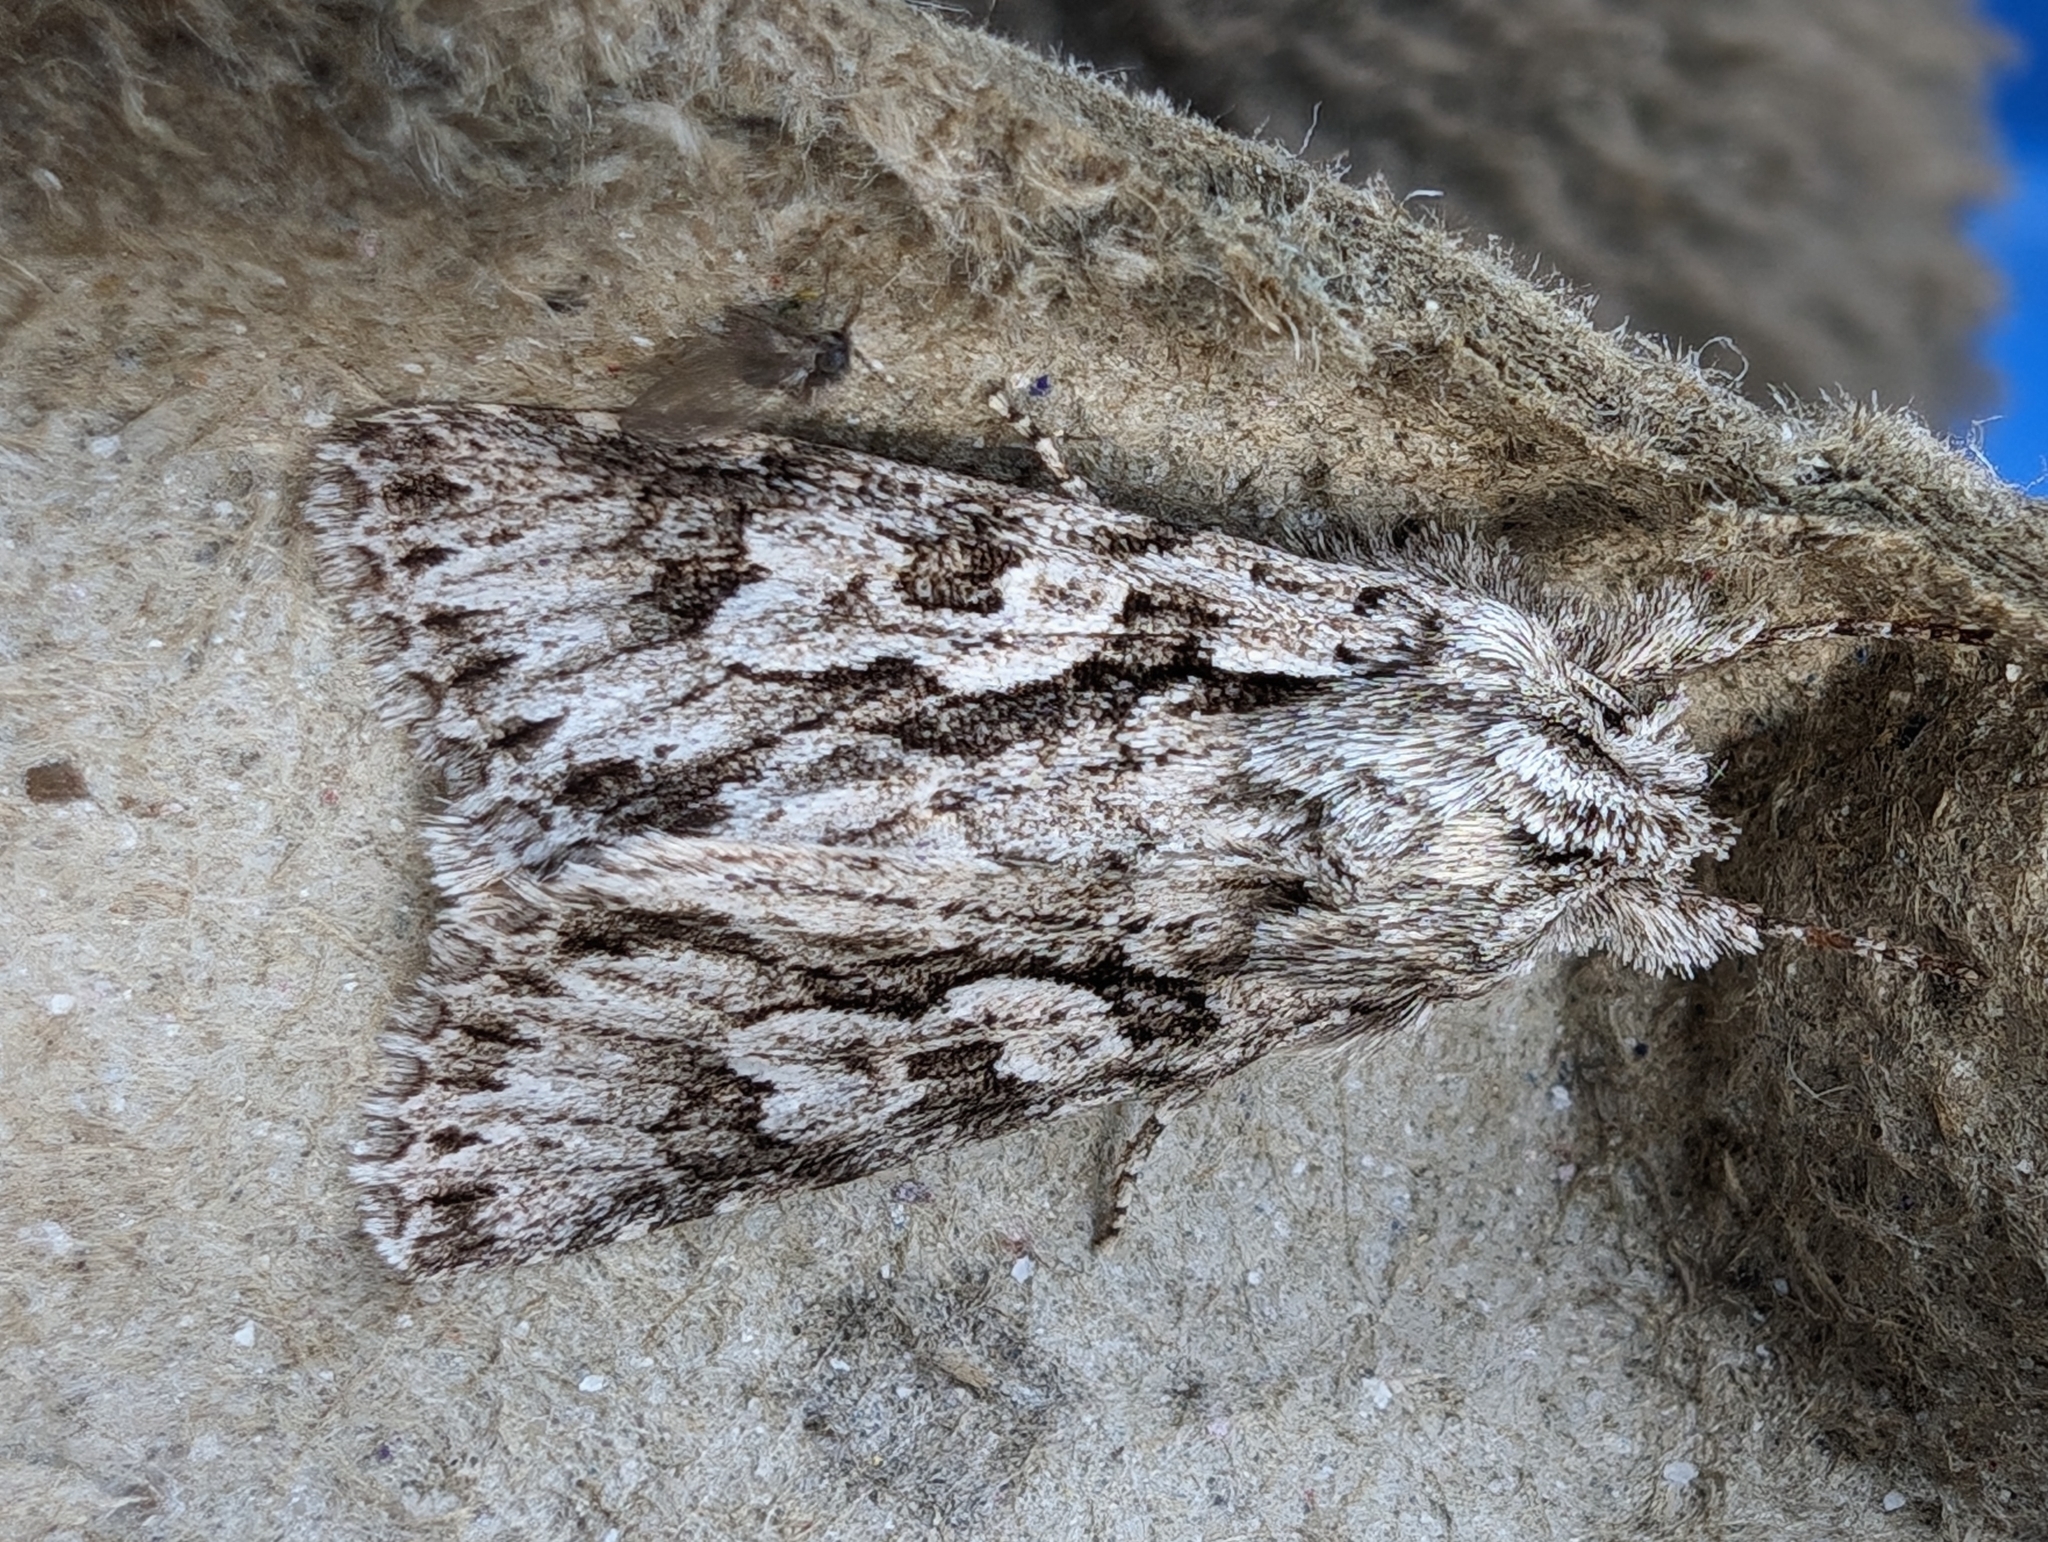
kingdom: Animalia
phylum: Arthropoda
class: Insecta
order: Lepidoptera
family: Noctuidae
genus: Xylocampa
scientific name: Xylocampa areola
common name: Early grey
